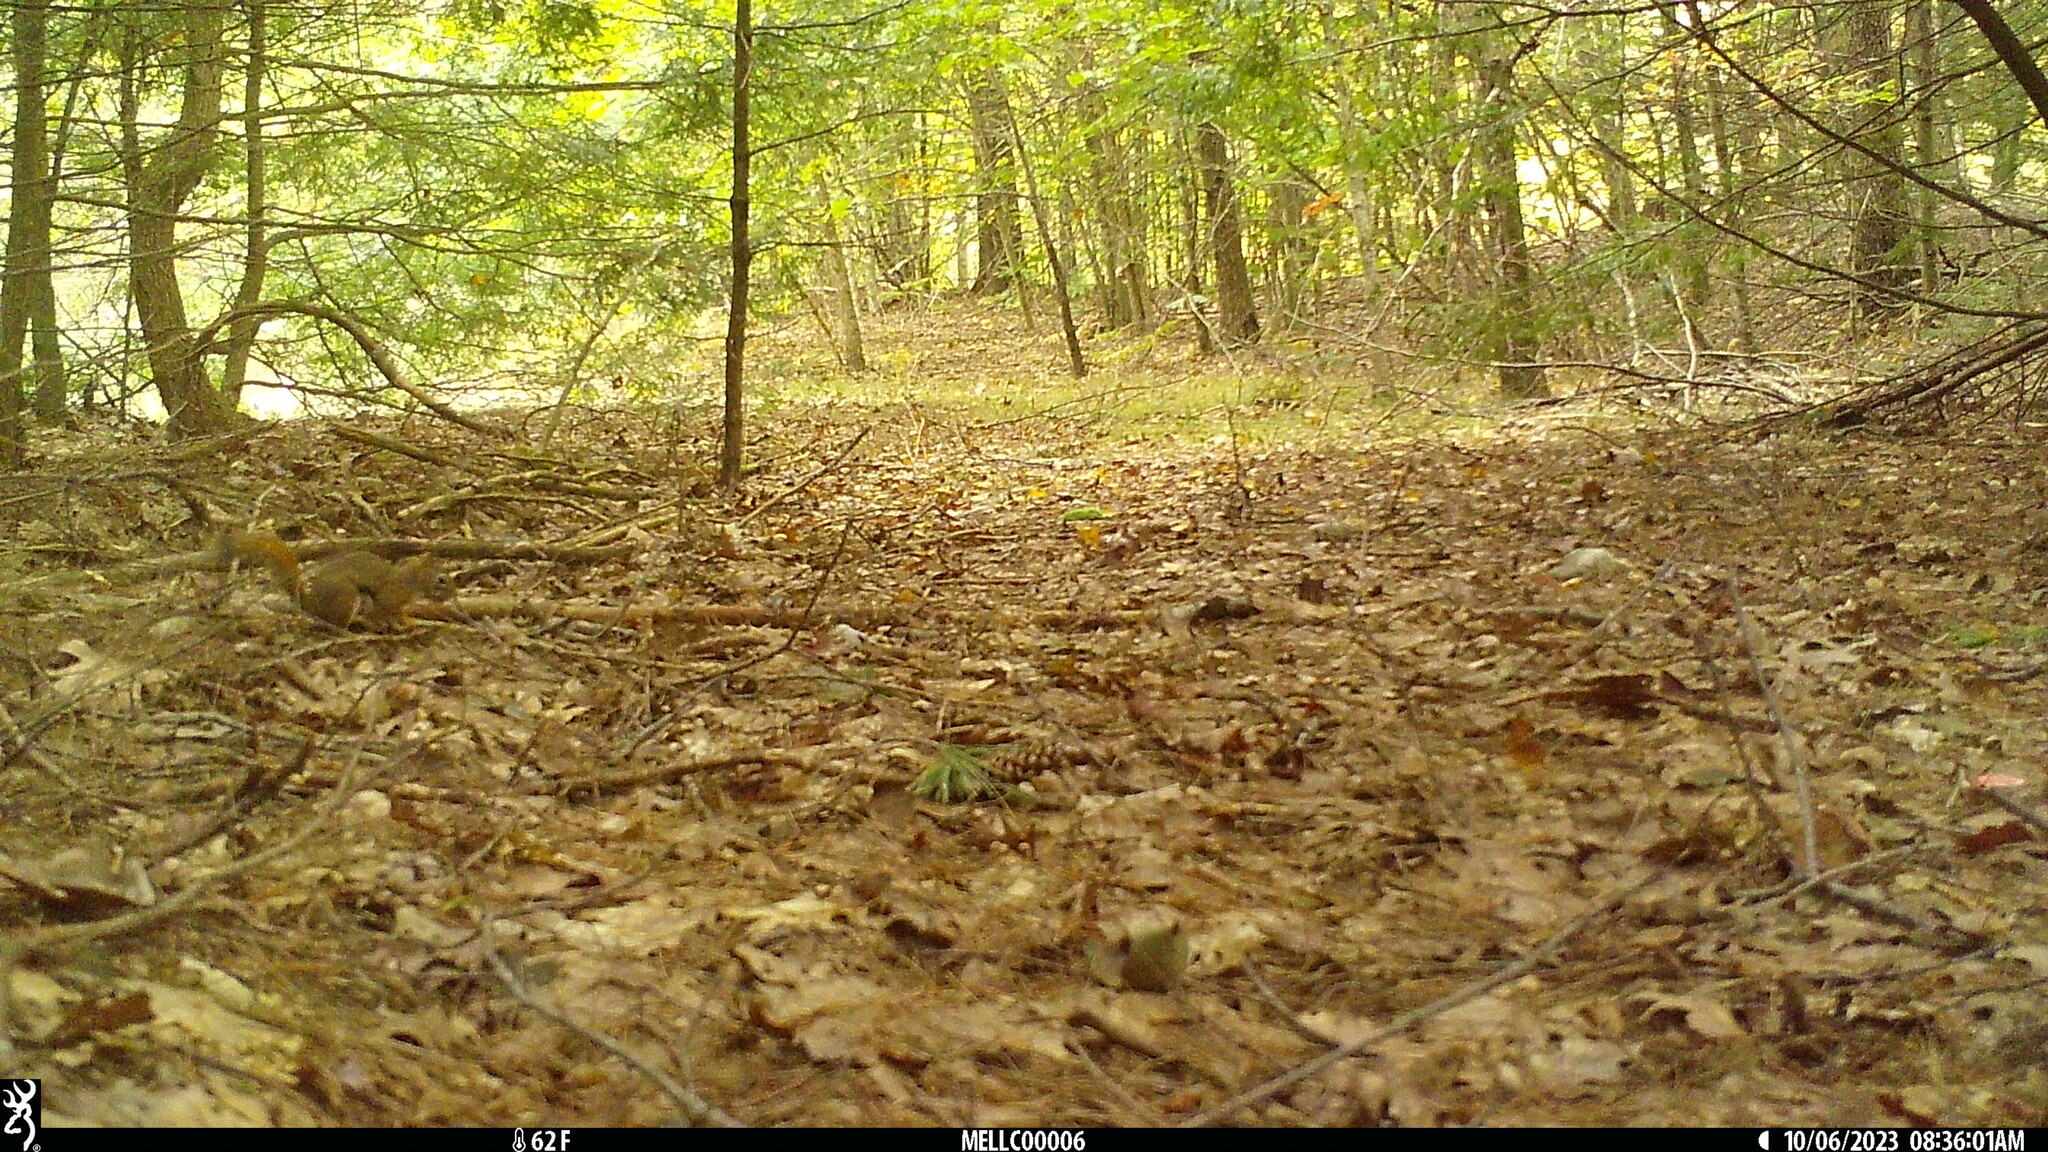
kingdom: Animalia
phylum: Chordata
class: Mammalia
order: Rodentia
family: Sciuridae
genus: Tamiasciurus
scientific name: Tamiasciurus hudsonicus
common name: Red squirrel
